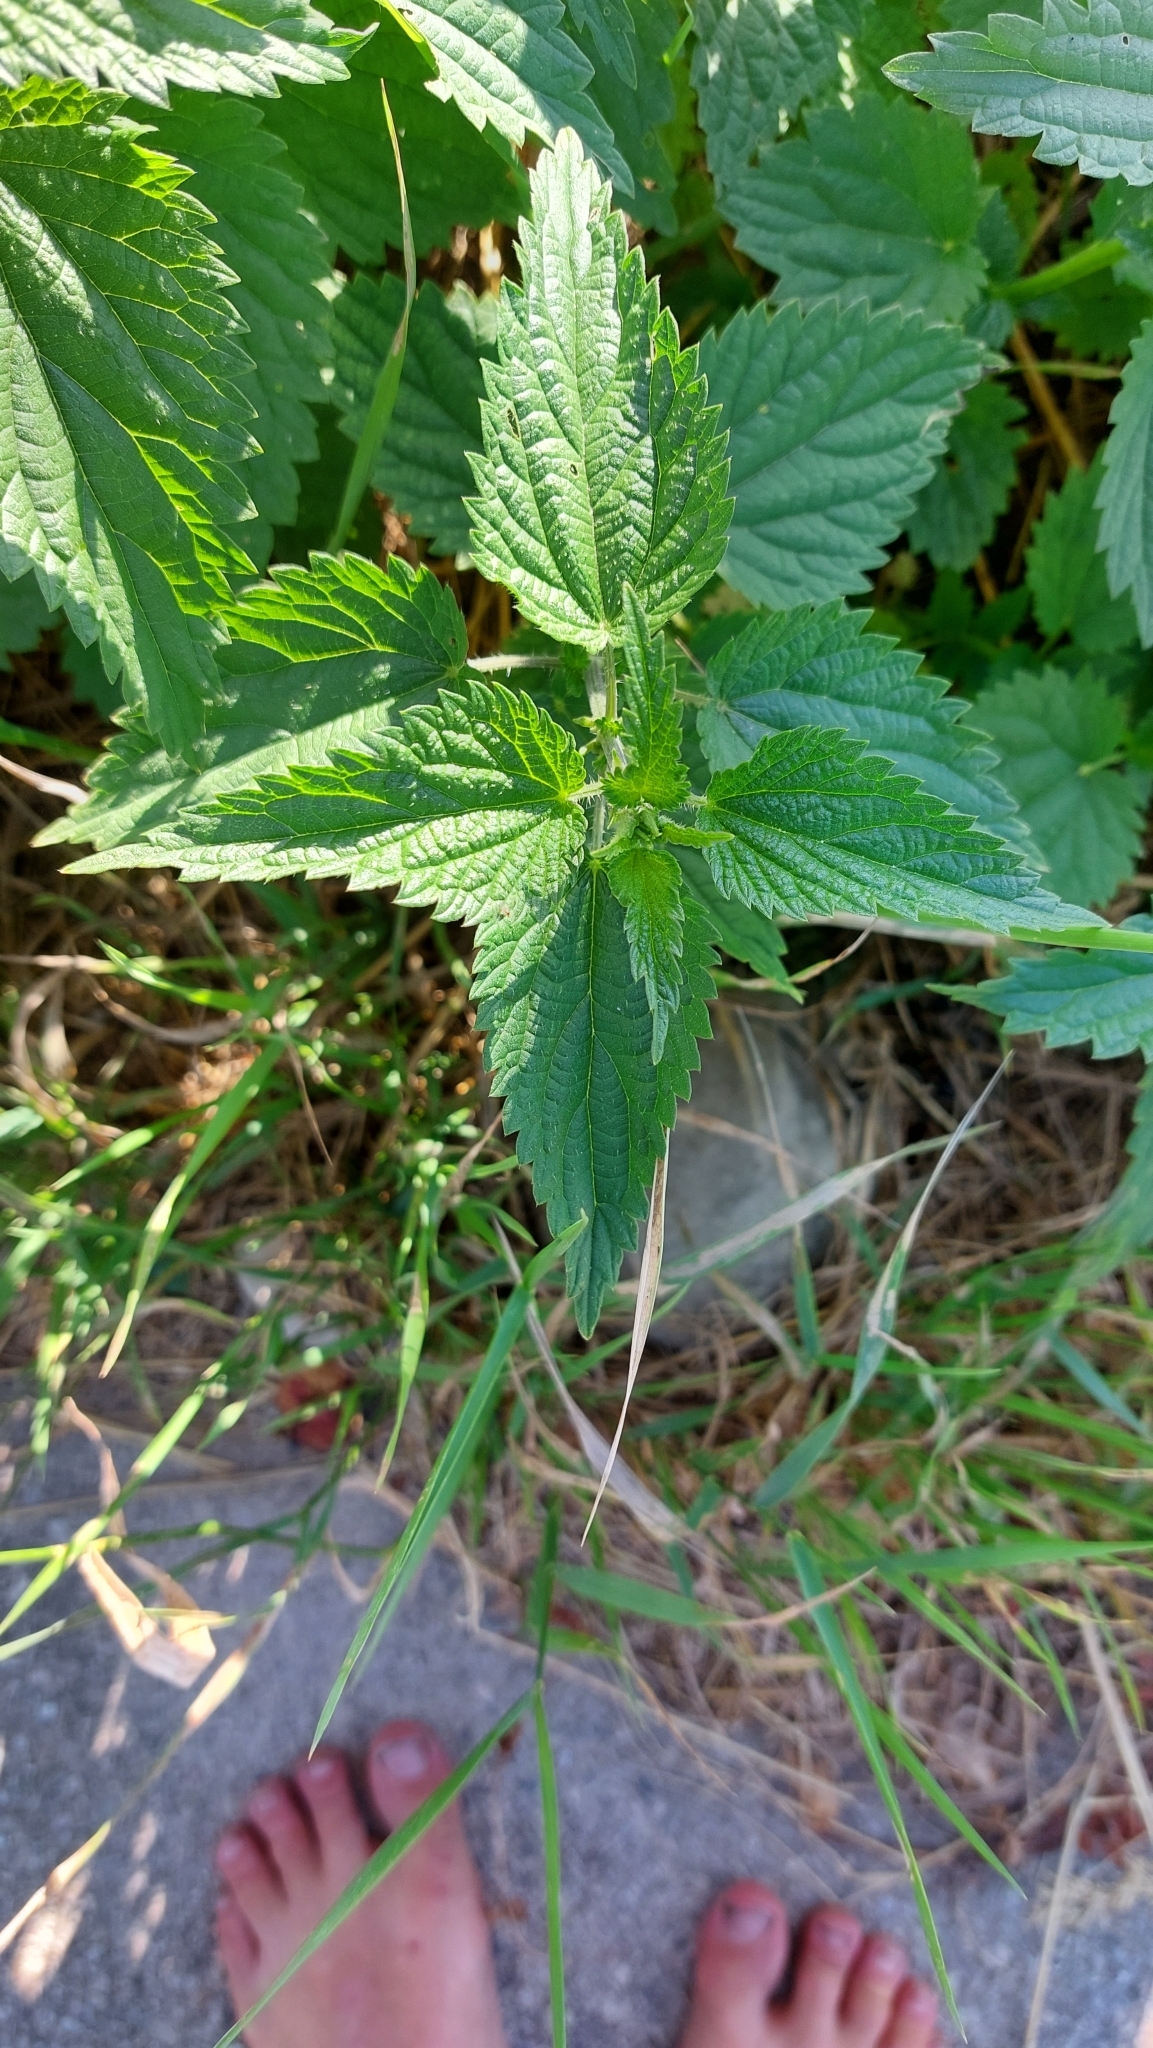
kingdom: Plantae
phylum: Tracheophyta
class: Magnoliopsida
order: Rosales
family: Urticaceae
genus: Urtica
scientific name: Urtica dioica
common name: Common nettle
